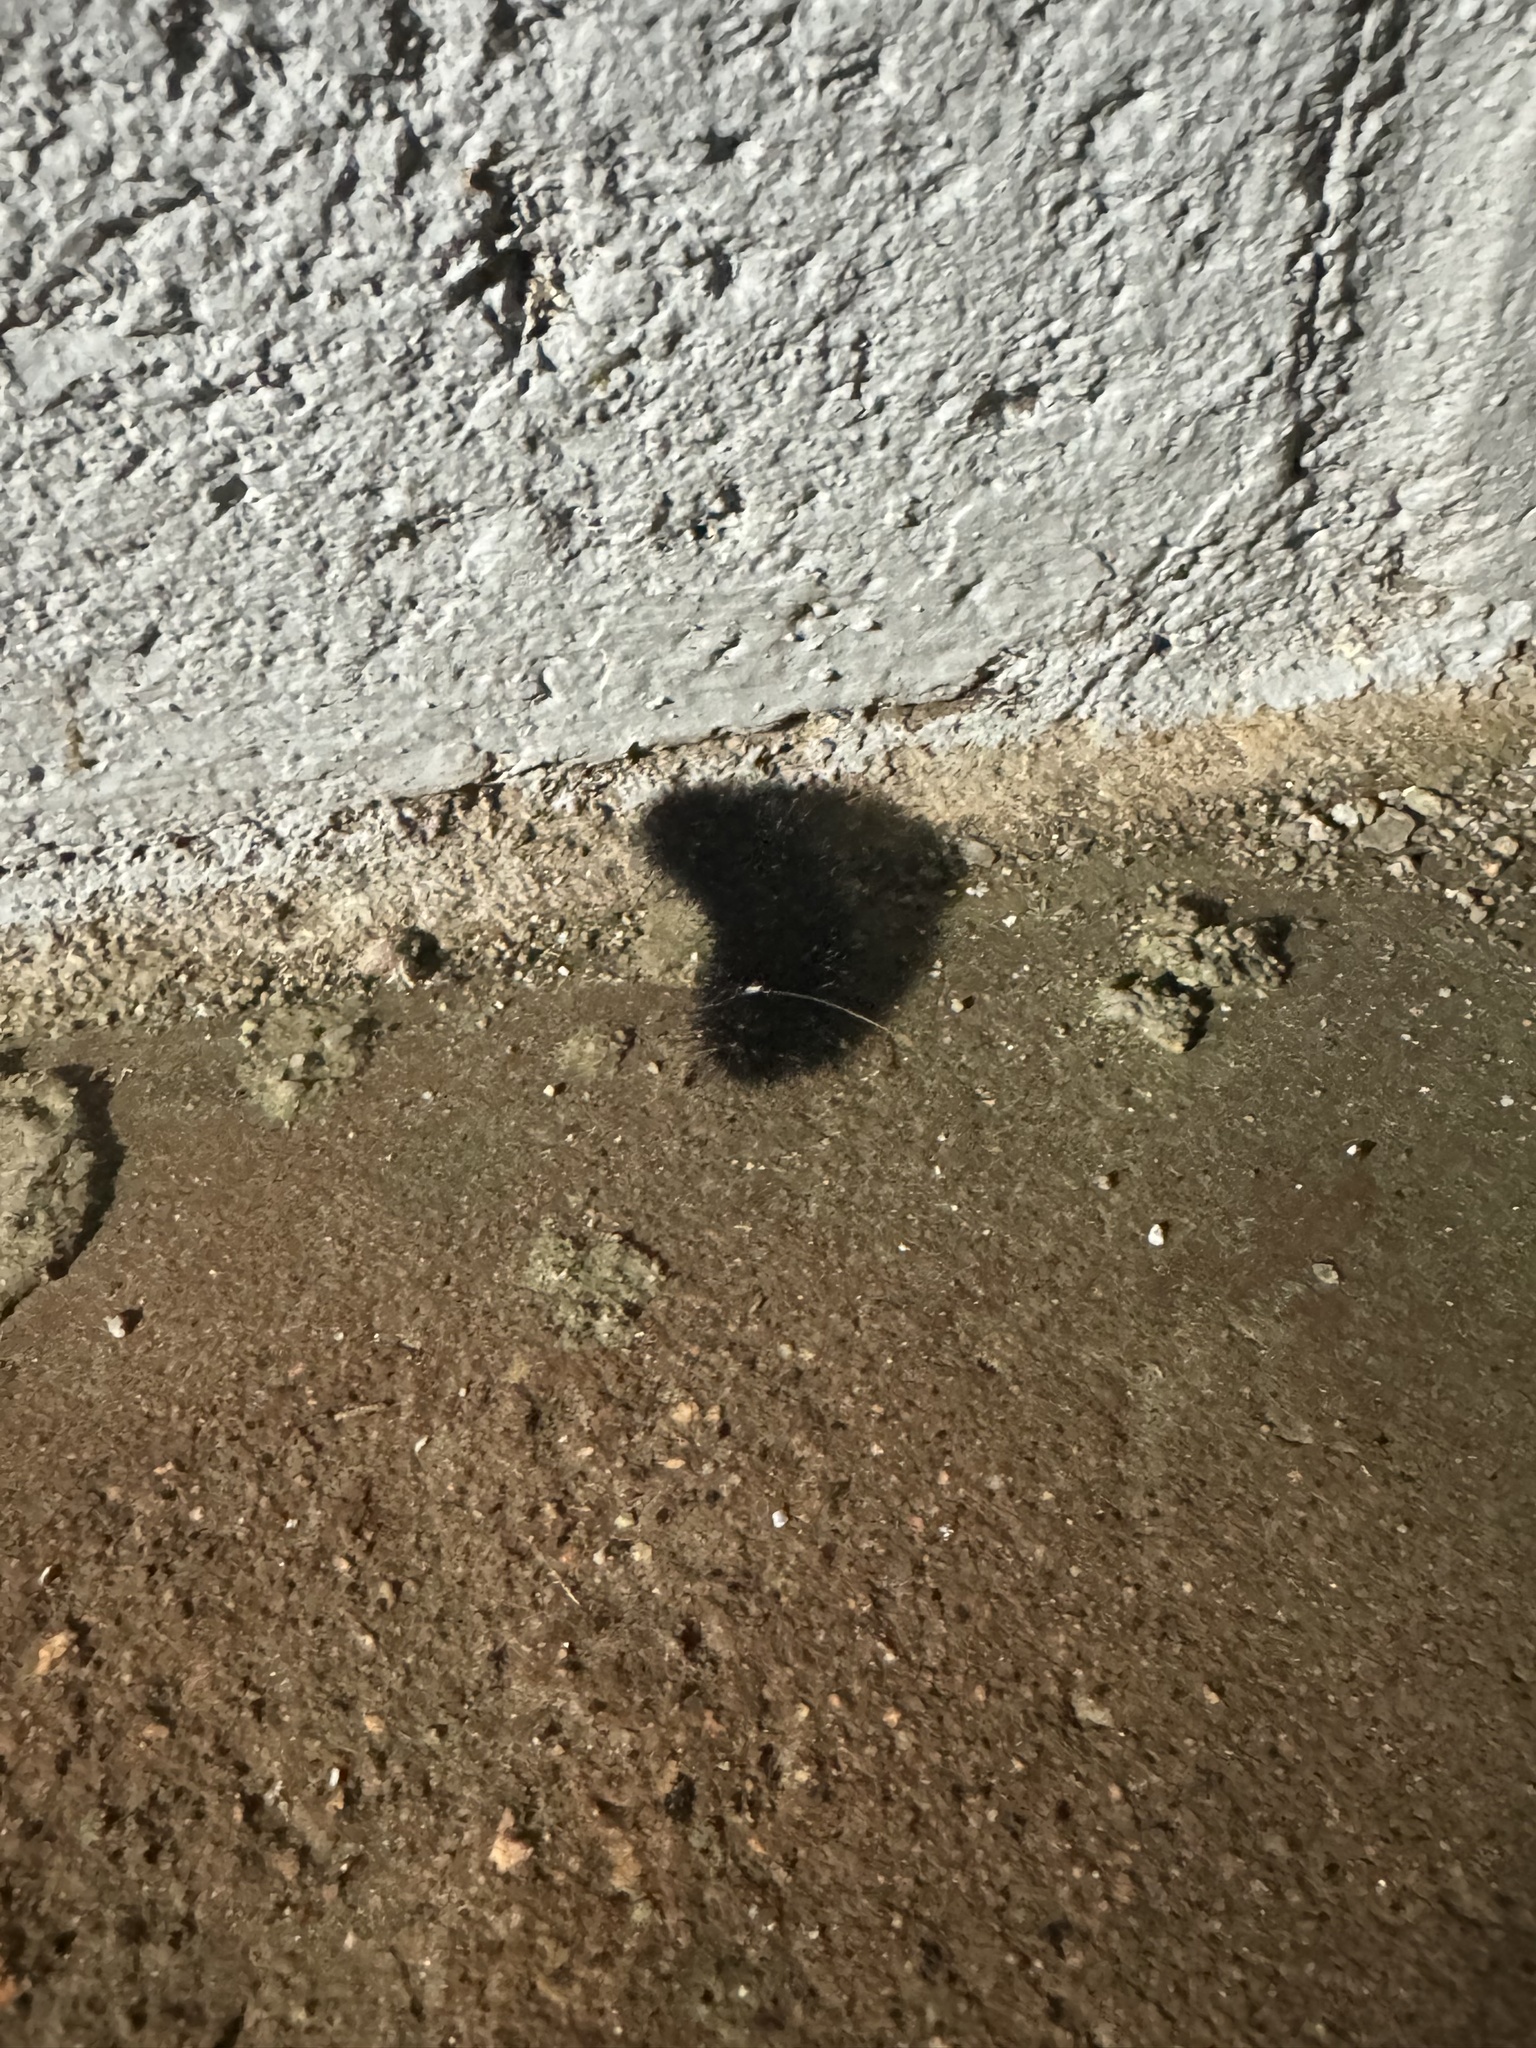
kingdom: Animalia
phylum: Arthropoda
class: Insecta
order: Lepidoptera
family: Erebidae
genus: Arachnis
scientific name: Arachnis picta
